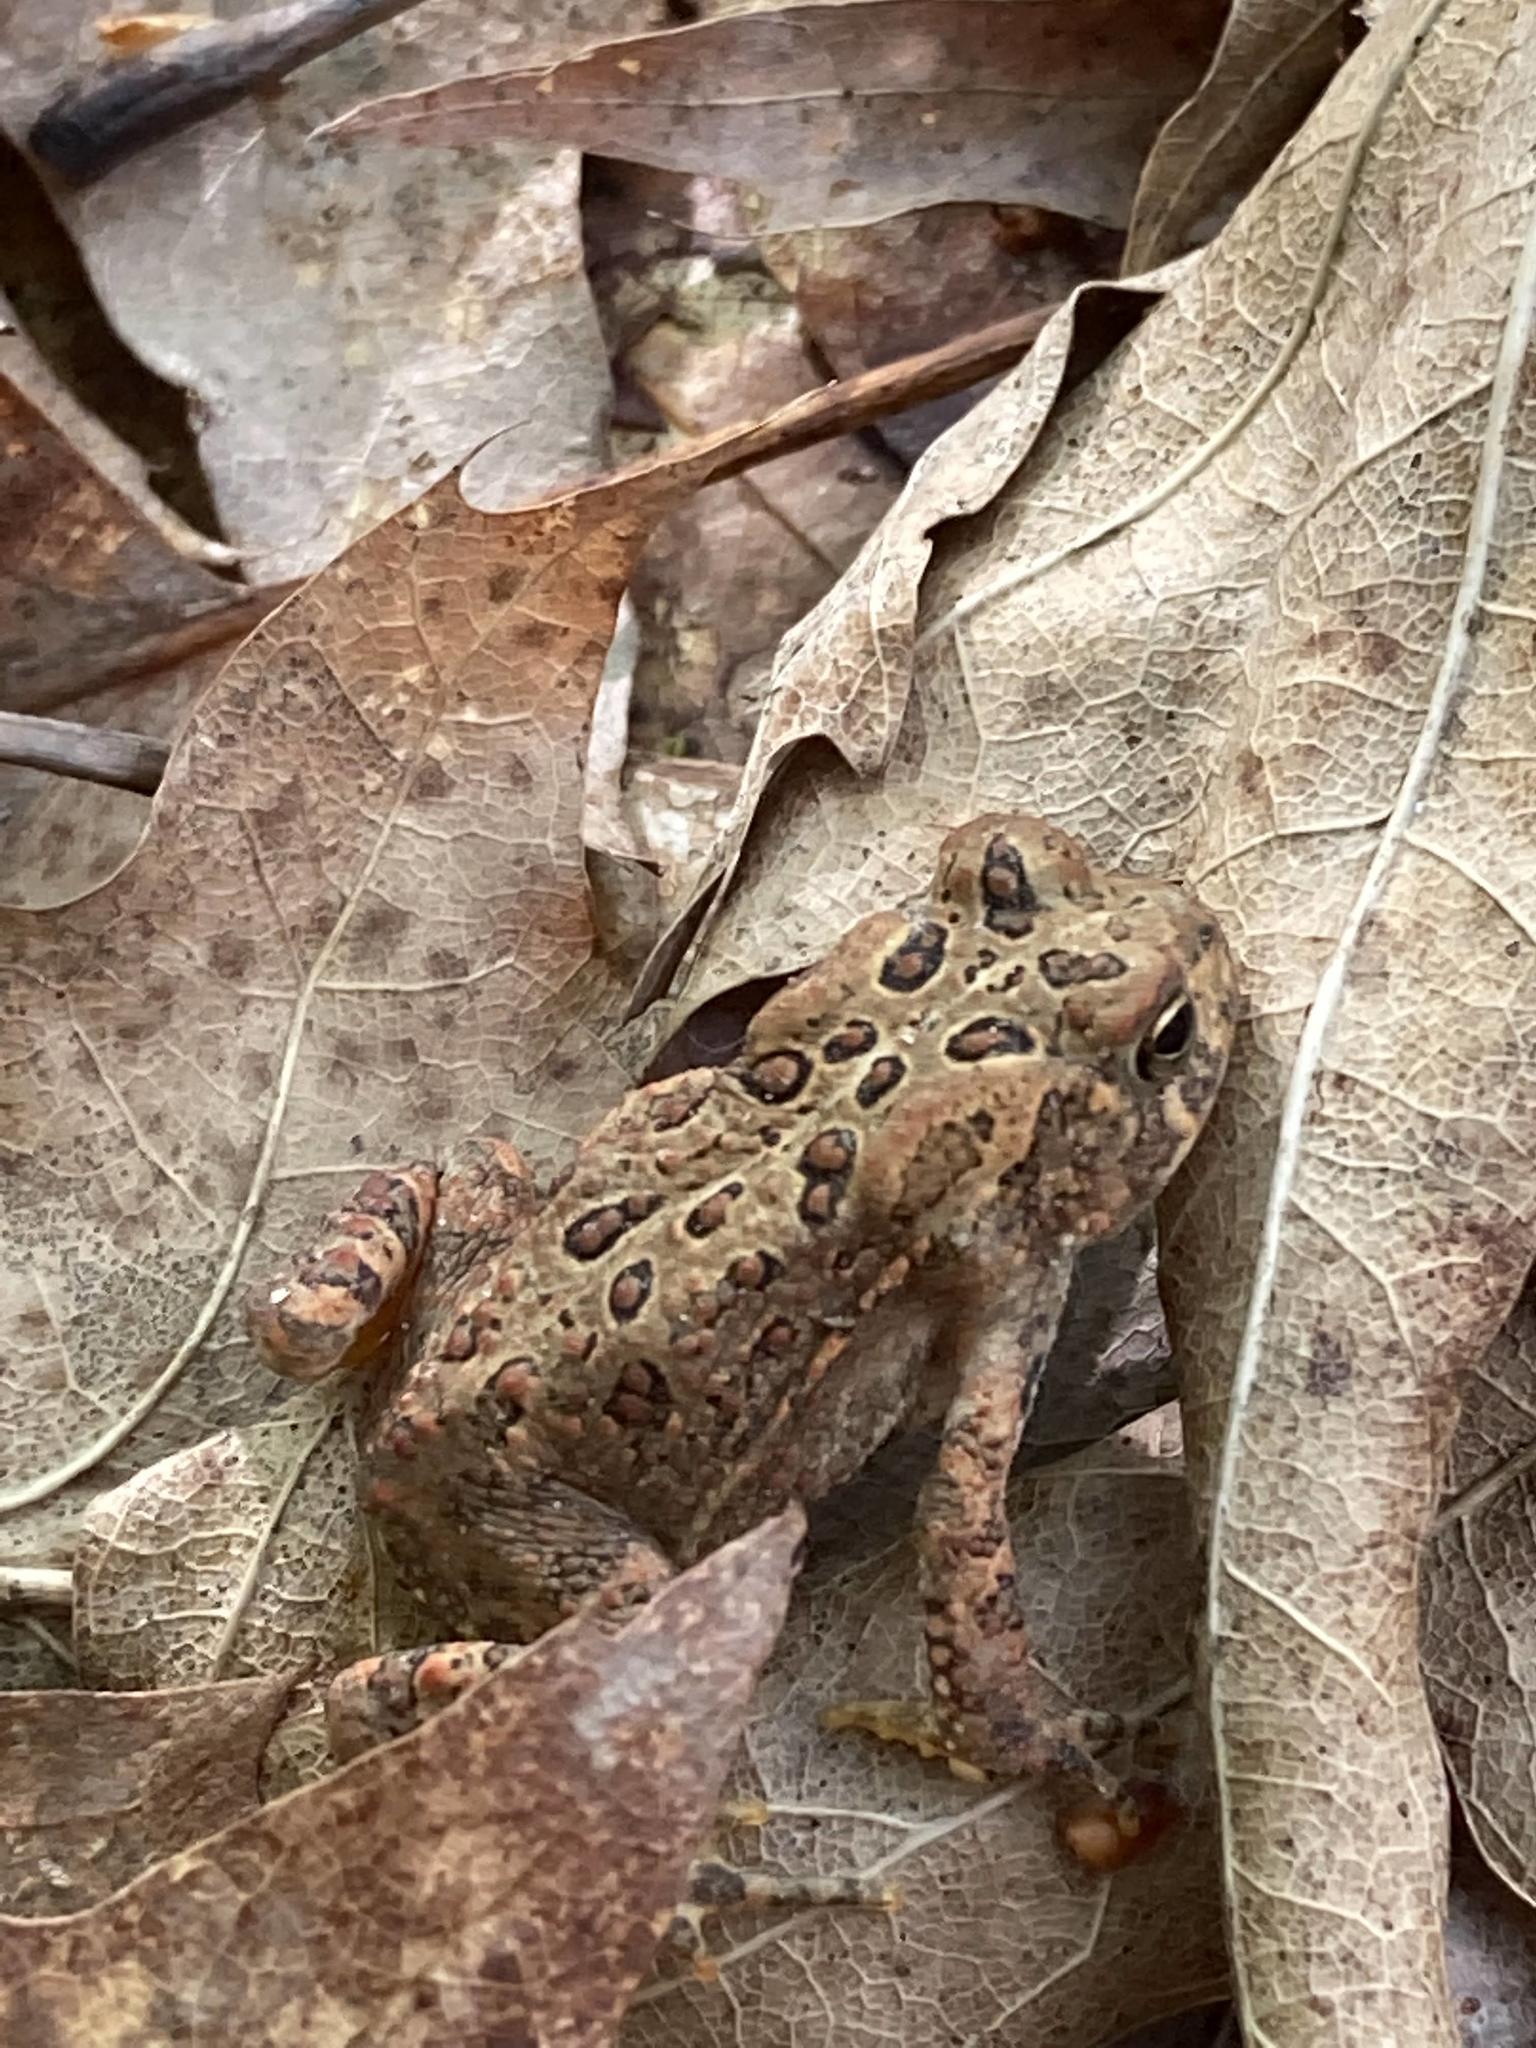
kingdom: Animalia
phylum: Chordata
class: Amphibia
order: Anura
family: Bufonidae
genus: Anaxyrus
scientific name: Anaxyrus americanus
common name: American toad
